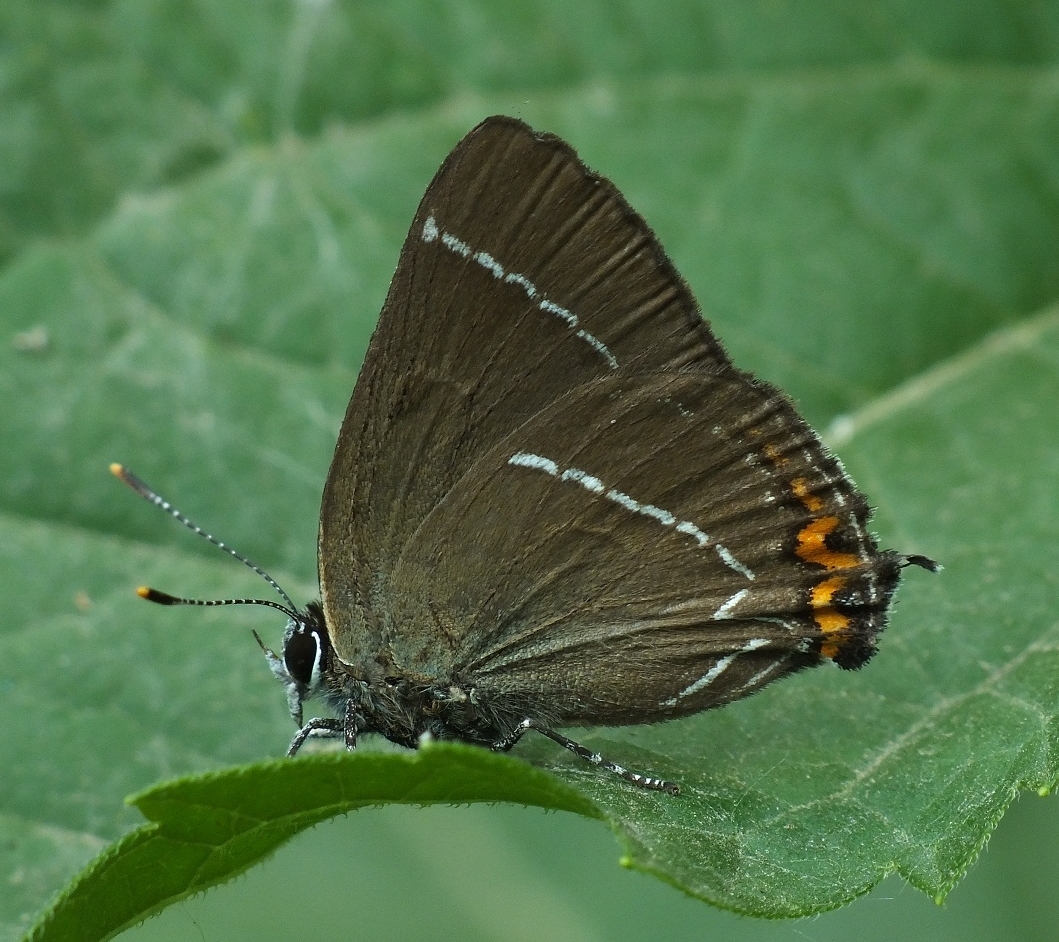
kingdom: Animalia
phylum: Arthropoda
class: Insecta
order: Lepidoptera
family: Lycaenidae
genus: Satyrium
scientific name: Satyrium w-album
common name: White-letter hairstreak
